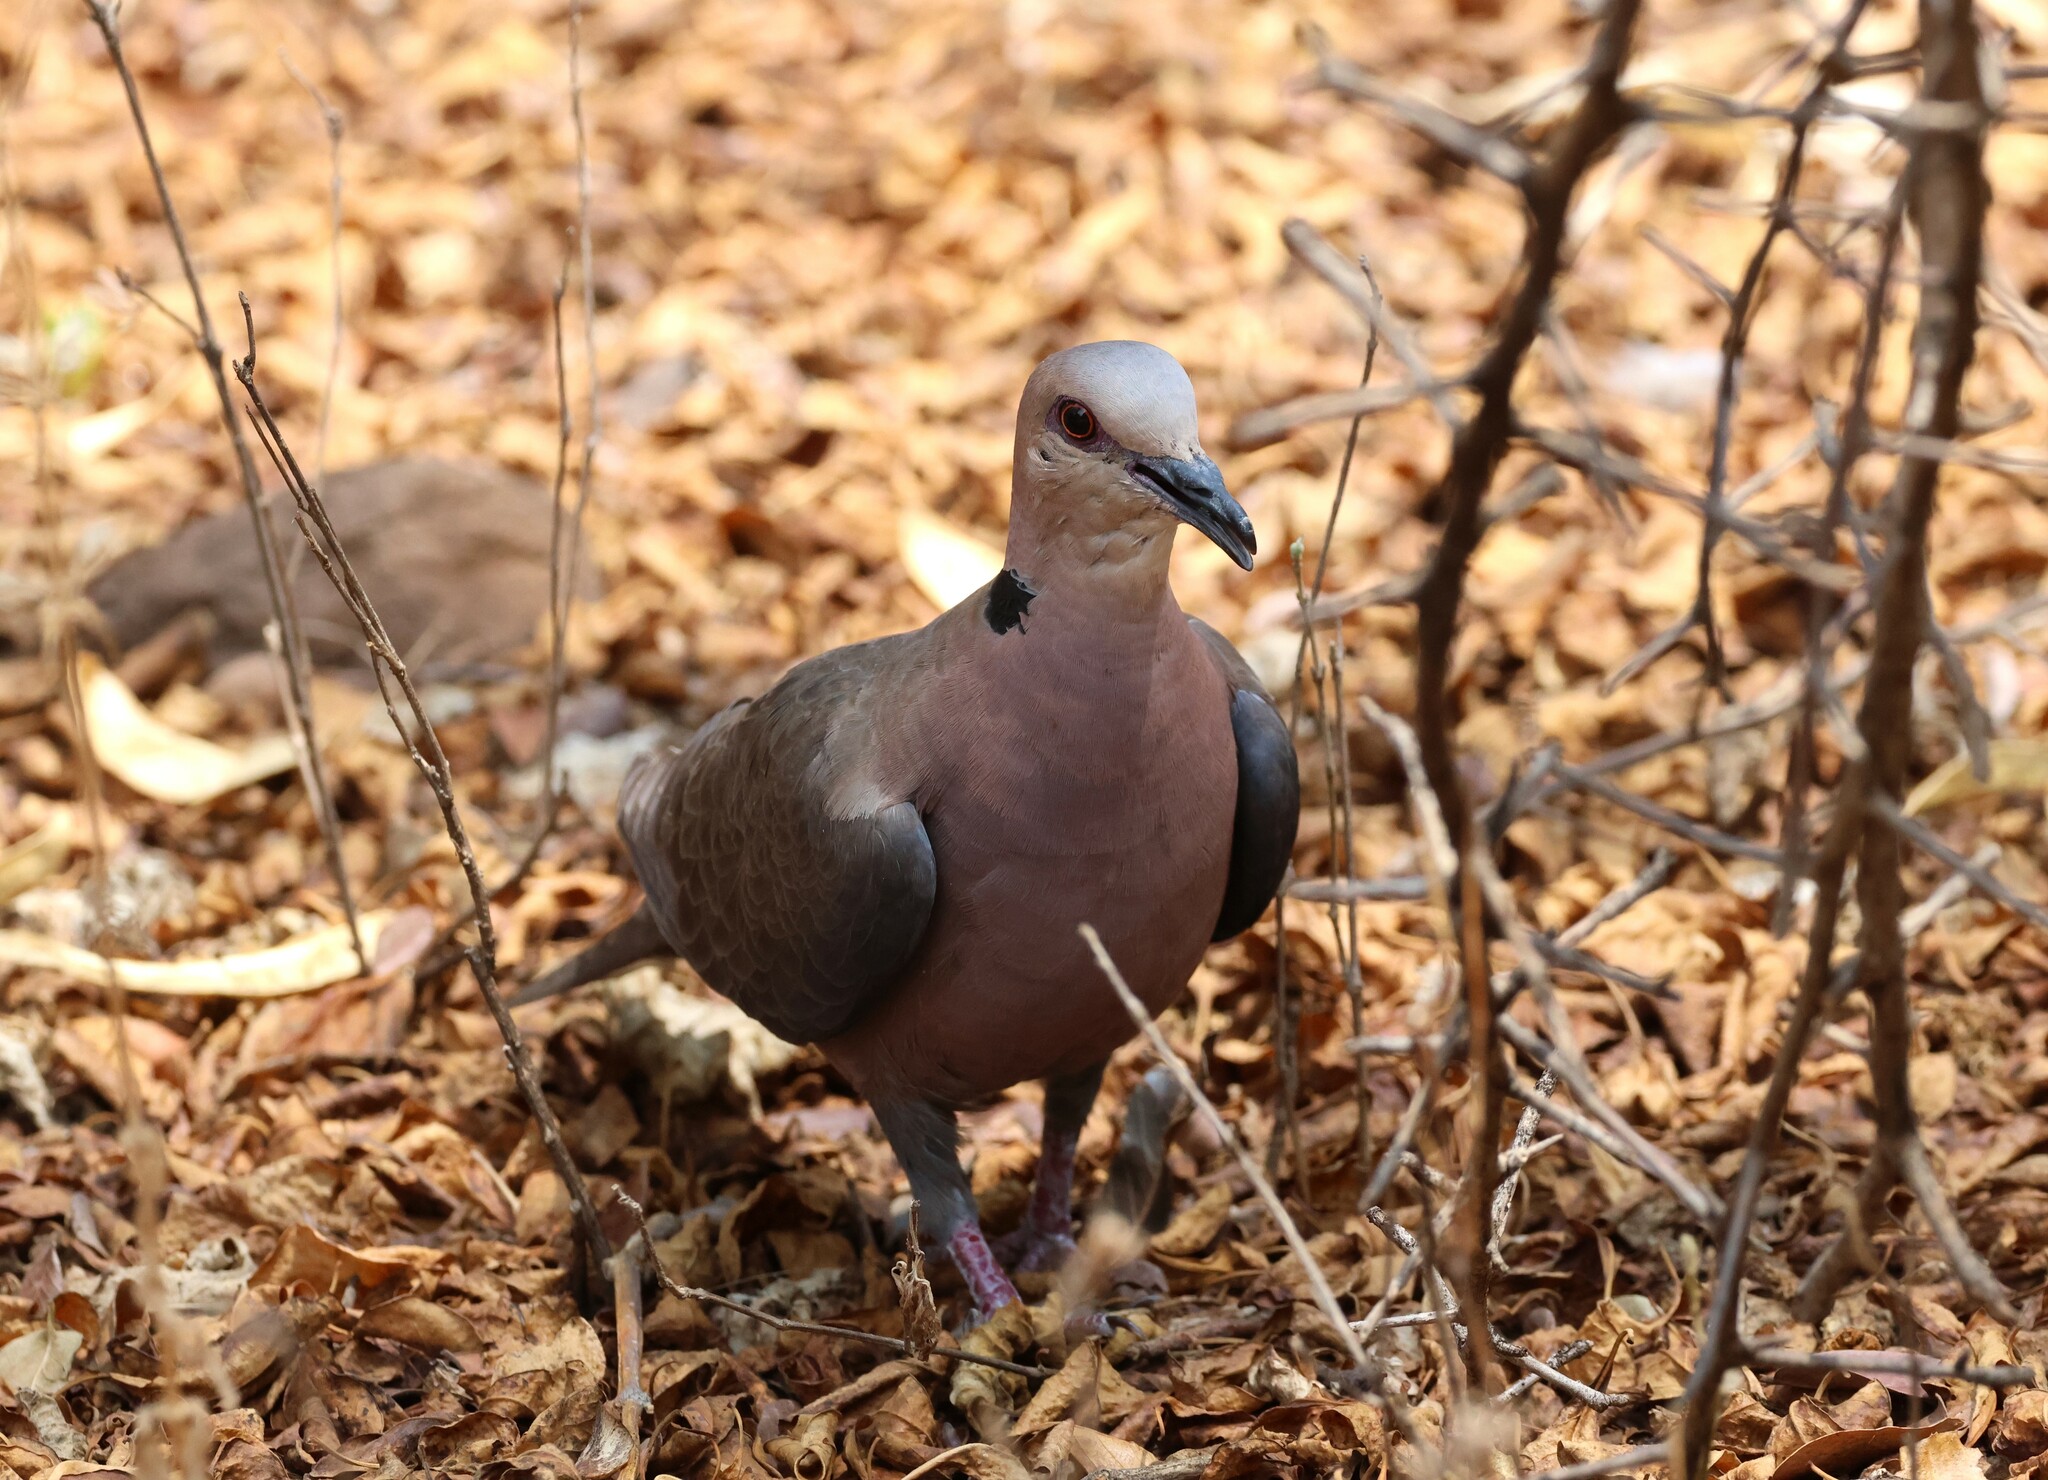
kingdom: Animalia
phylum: Chordata
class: Aves
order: Columbiformes
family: Columbidae
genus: Streptopelia
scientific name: Streptopelia semitorquata
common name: Red-eyed dove
